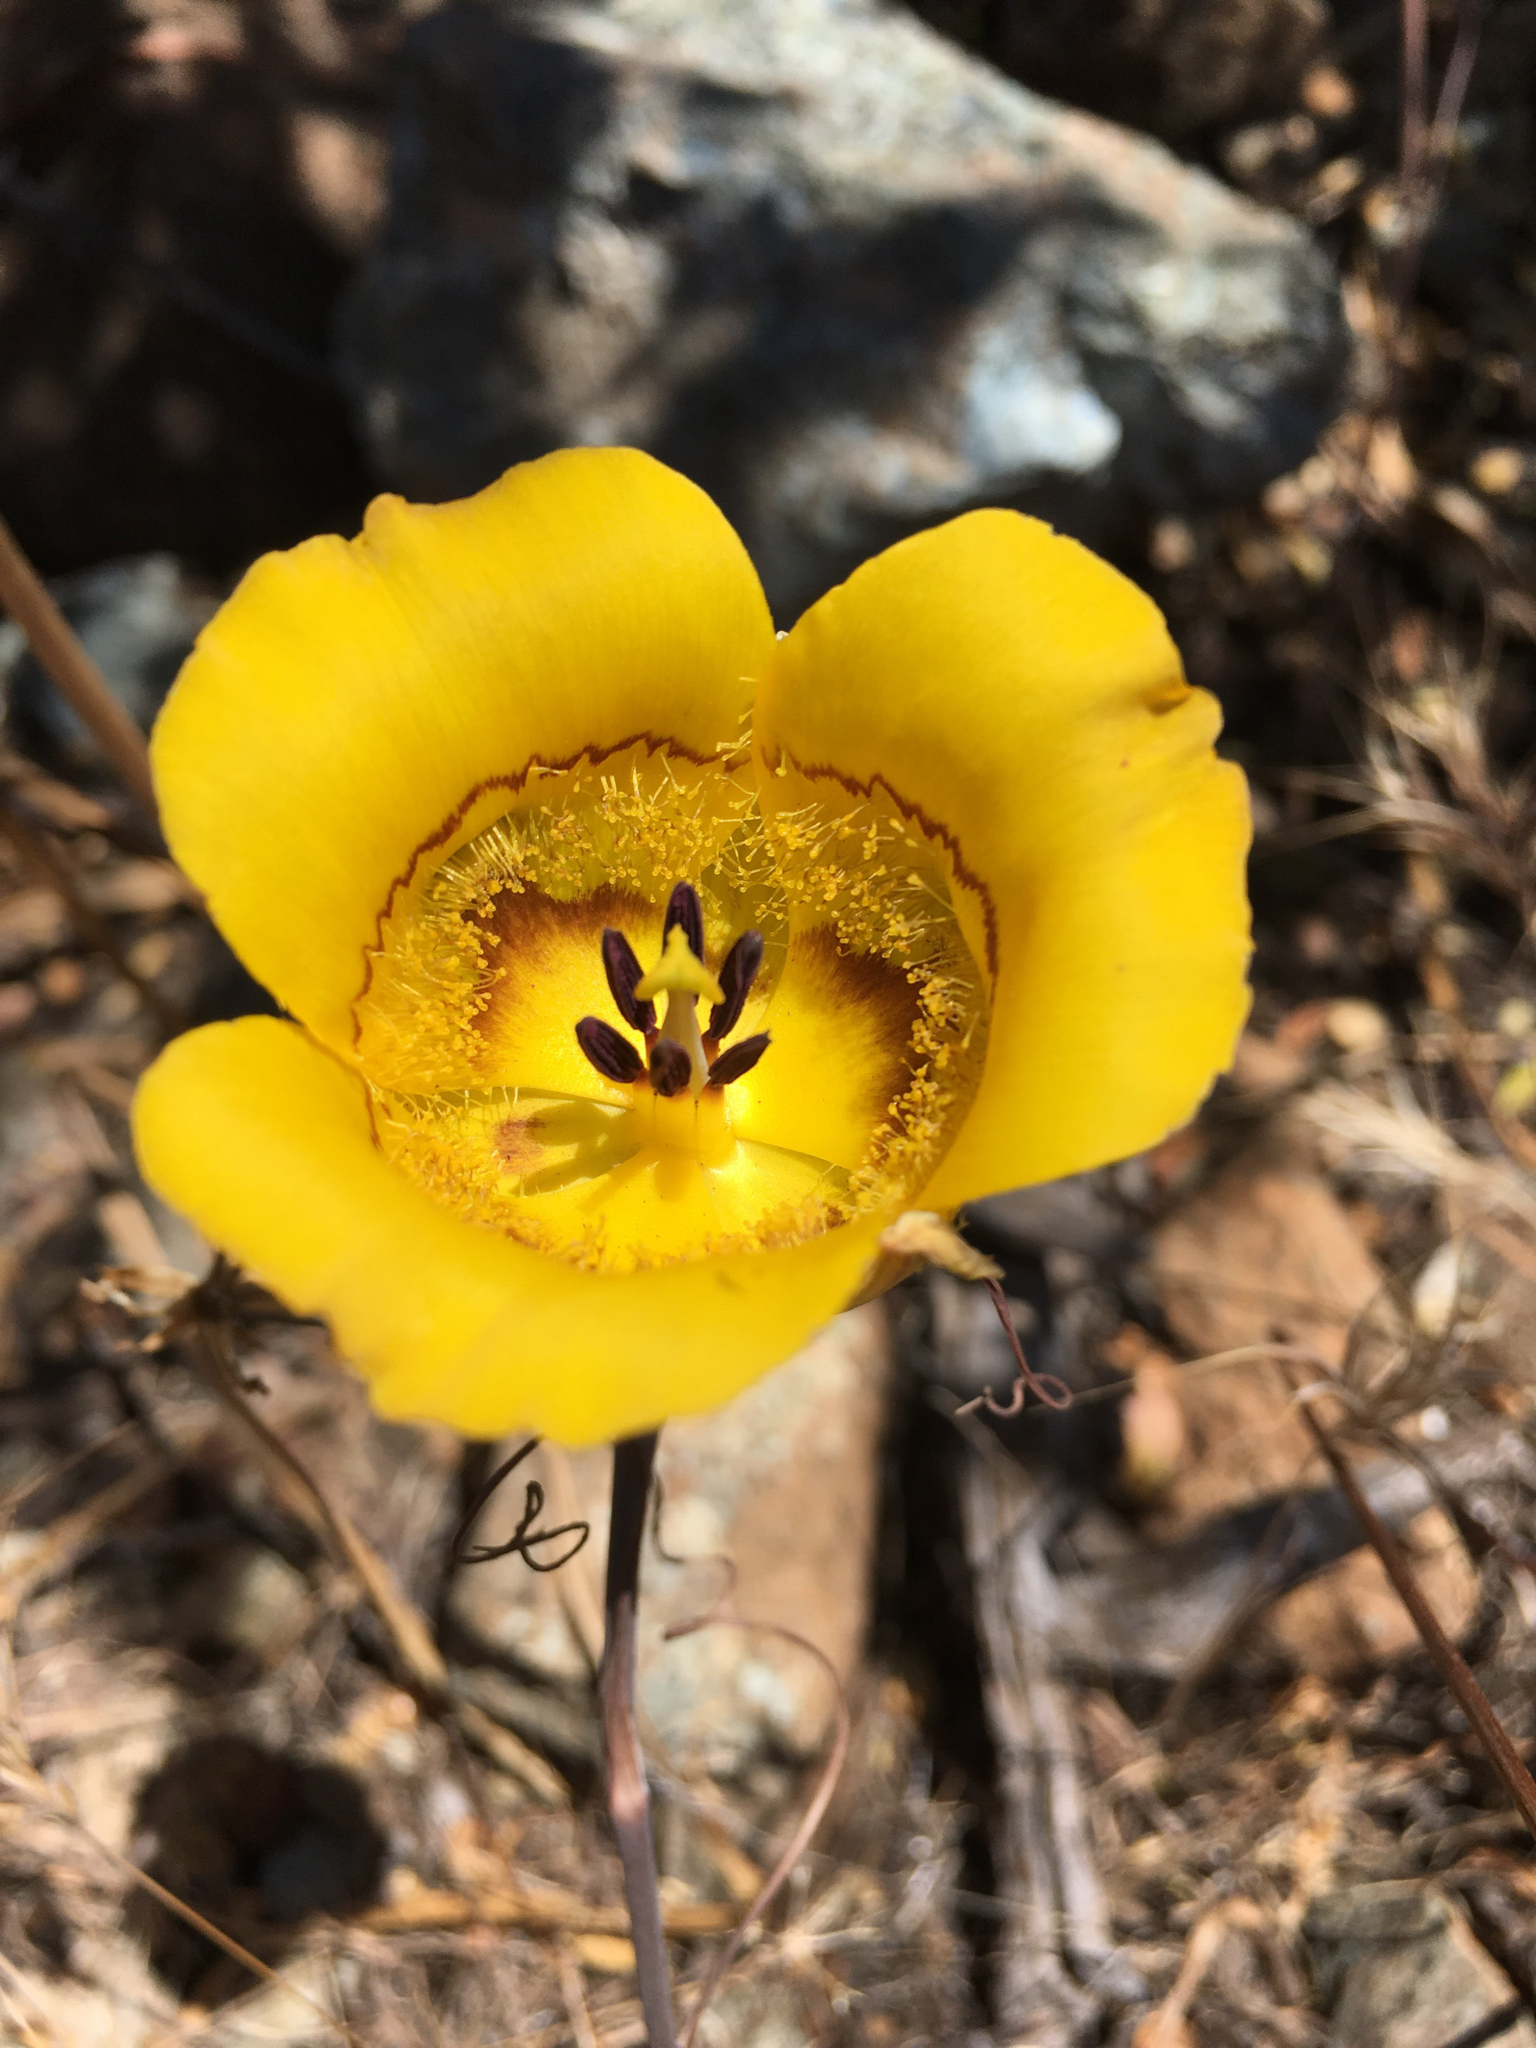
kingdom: Plantae
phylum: Tracheophyta
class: Liliopsida
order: Liliales
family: Liliaceae
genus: Calochortus
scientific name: Calochortus clavatus
